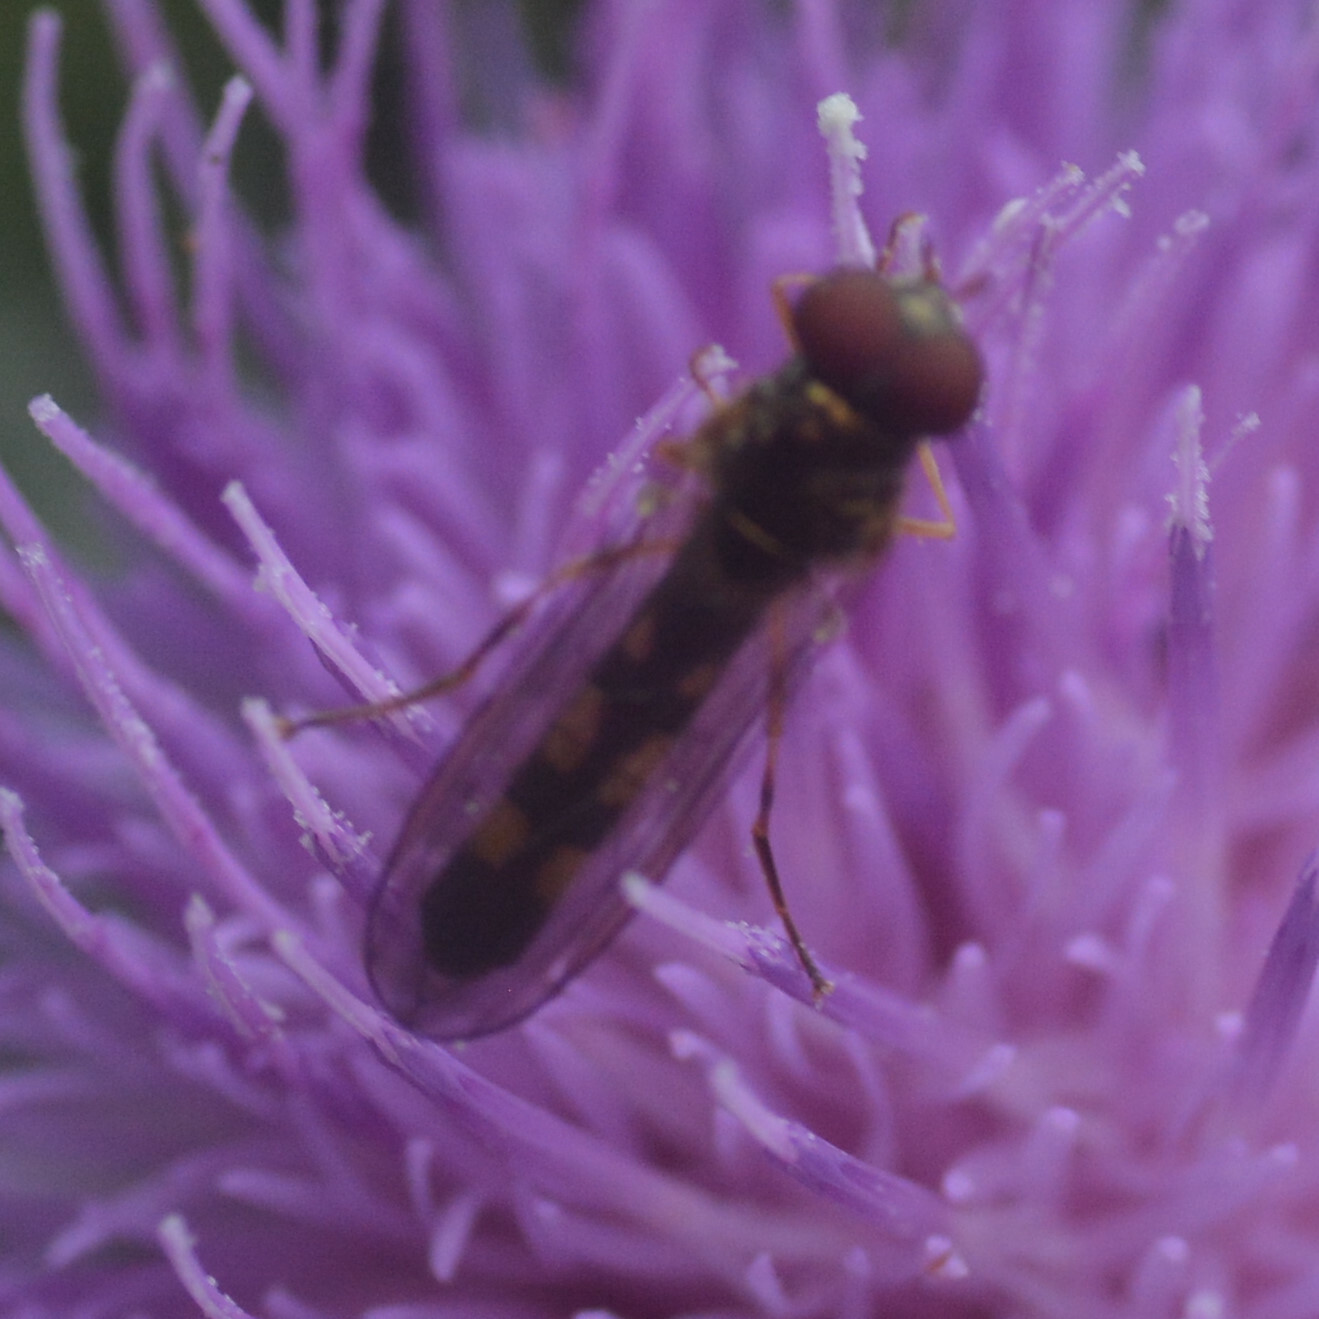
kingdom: Animalia
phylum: Arthropoda
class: Insecta
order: Diptera
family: Syrphidae
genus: Melanostoma
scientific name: Melanostoma scalare
